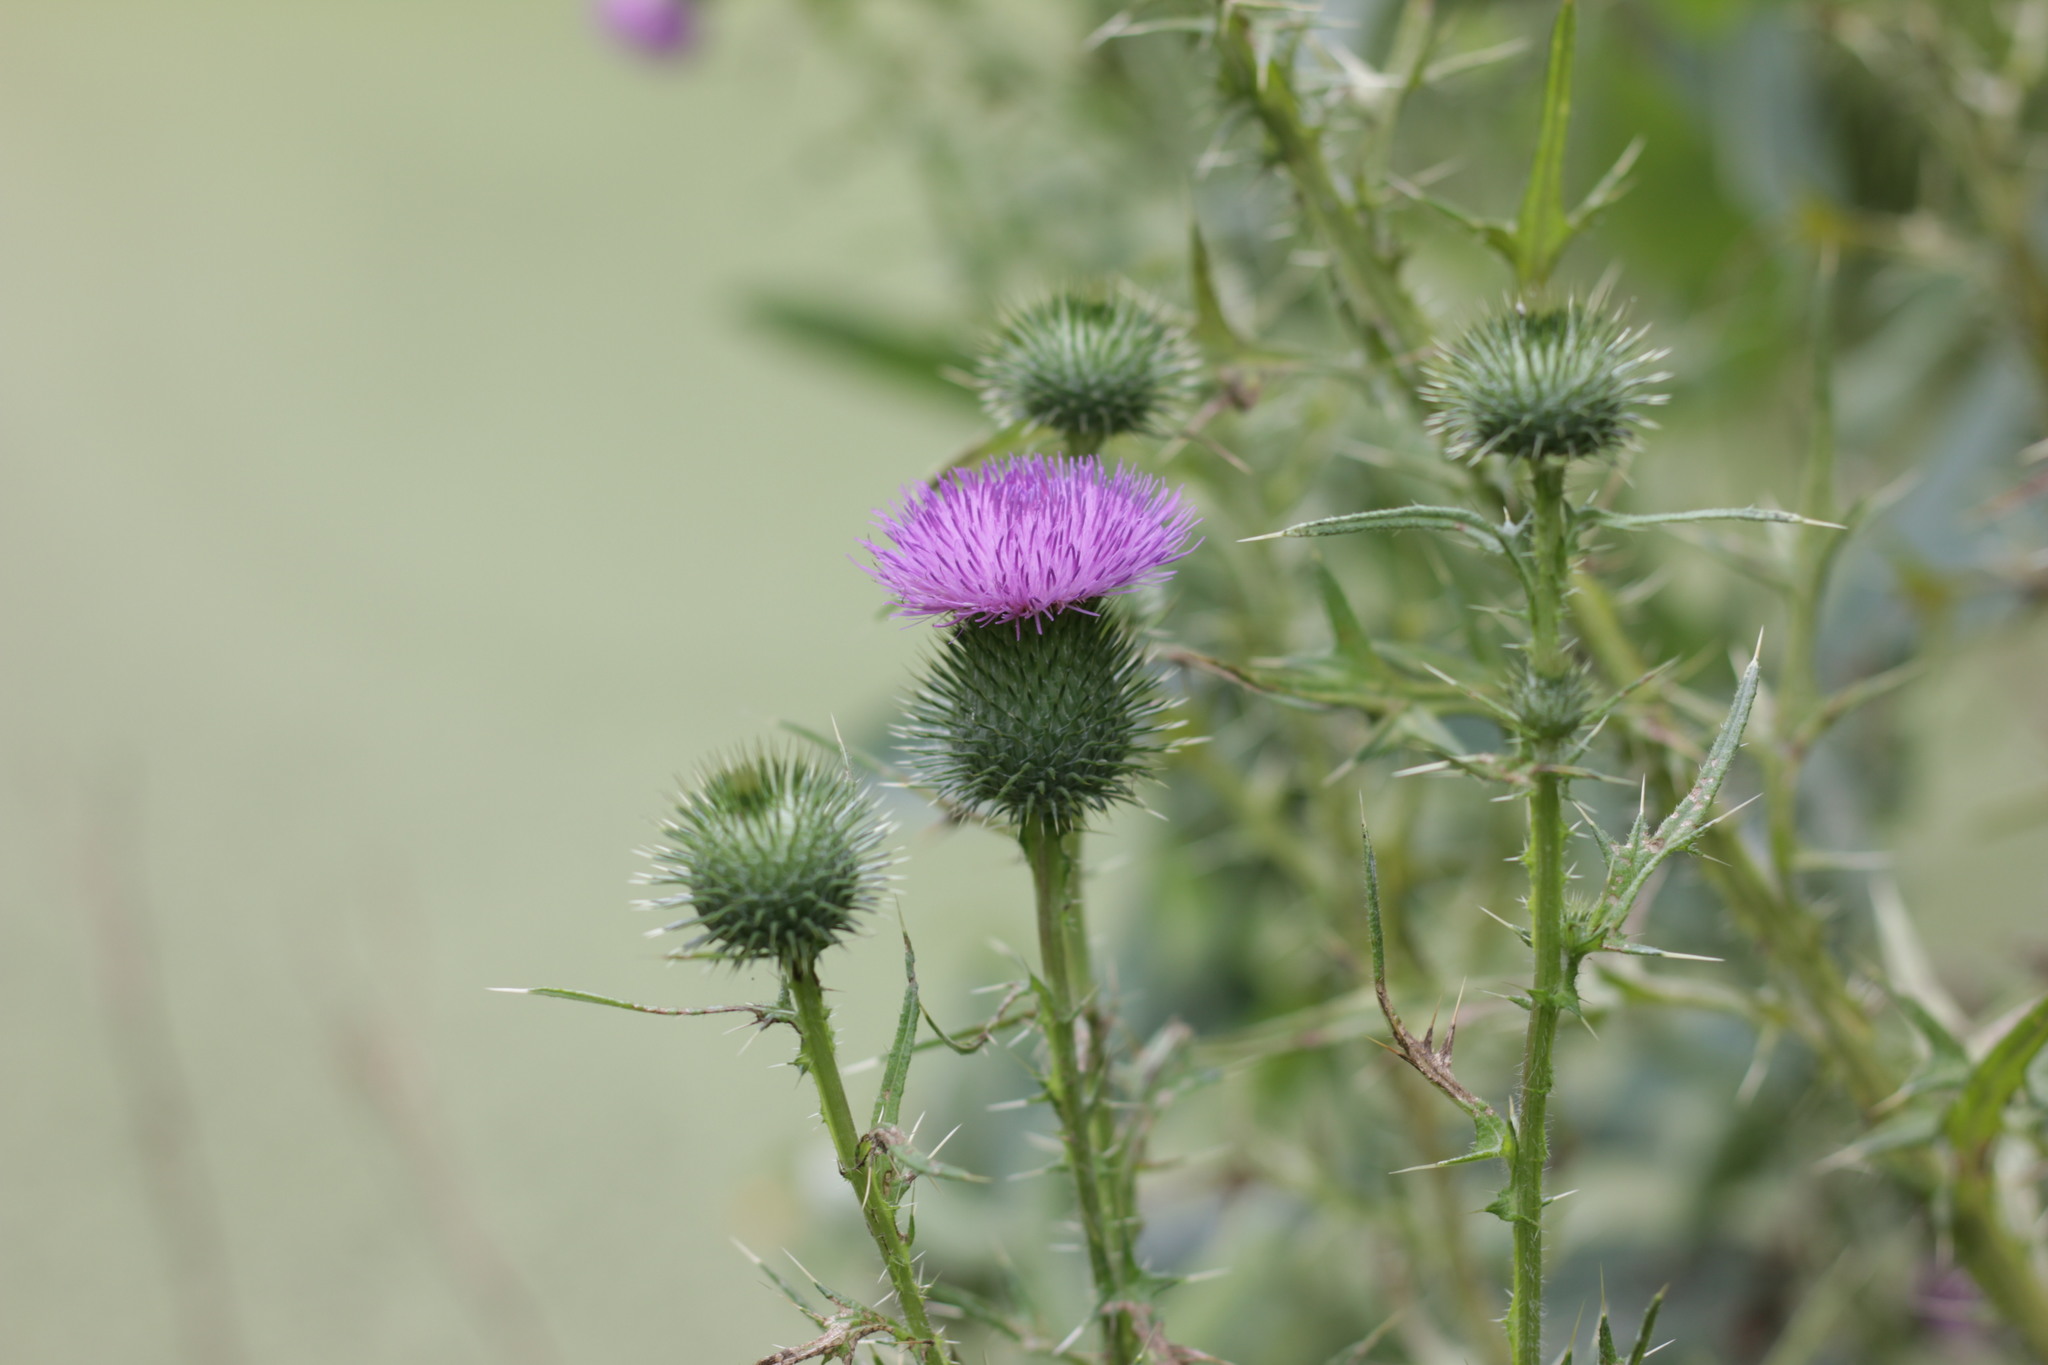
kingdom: Plantae
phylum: Tracheophyta
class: Magnoliopsida
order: Asterales
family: Asteraceae
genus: Cirsium
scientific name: Cirsium vulgare
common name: Bull thistle
